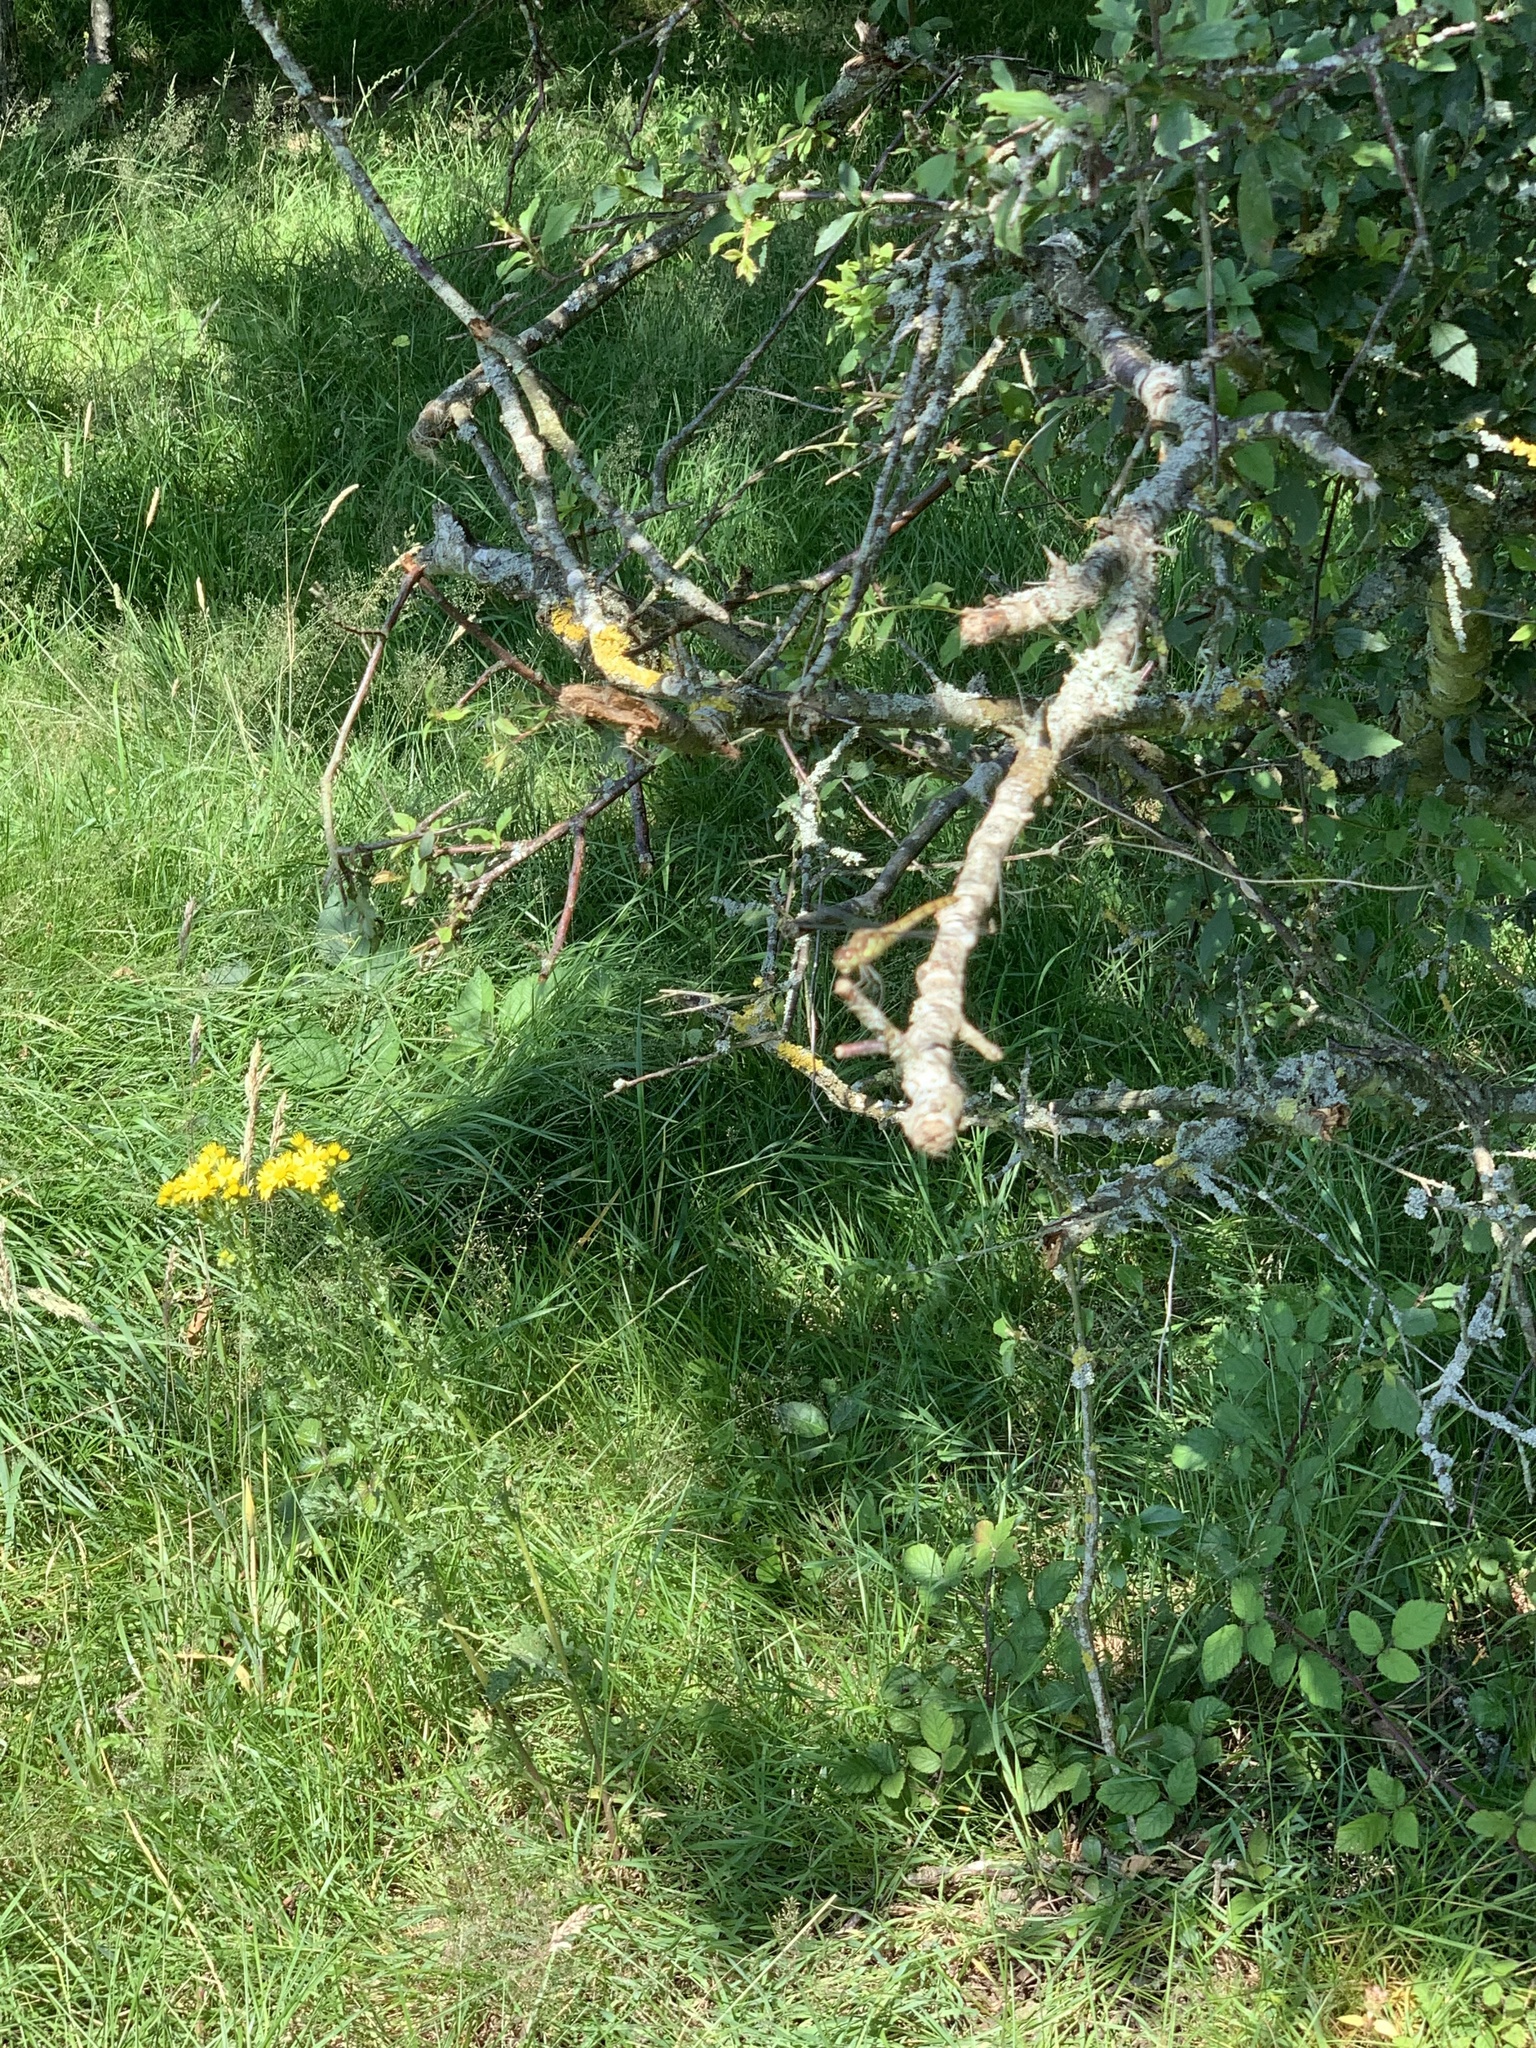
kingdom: Animalia
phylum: Arthropoda
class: Insecta
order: Odonata
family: Libellulidae
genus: Sympetrum
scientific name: Sympetrum striolatum
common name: Common darter
